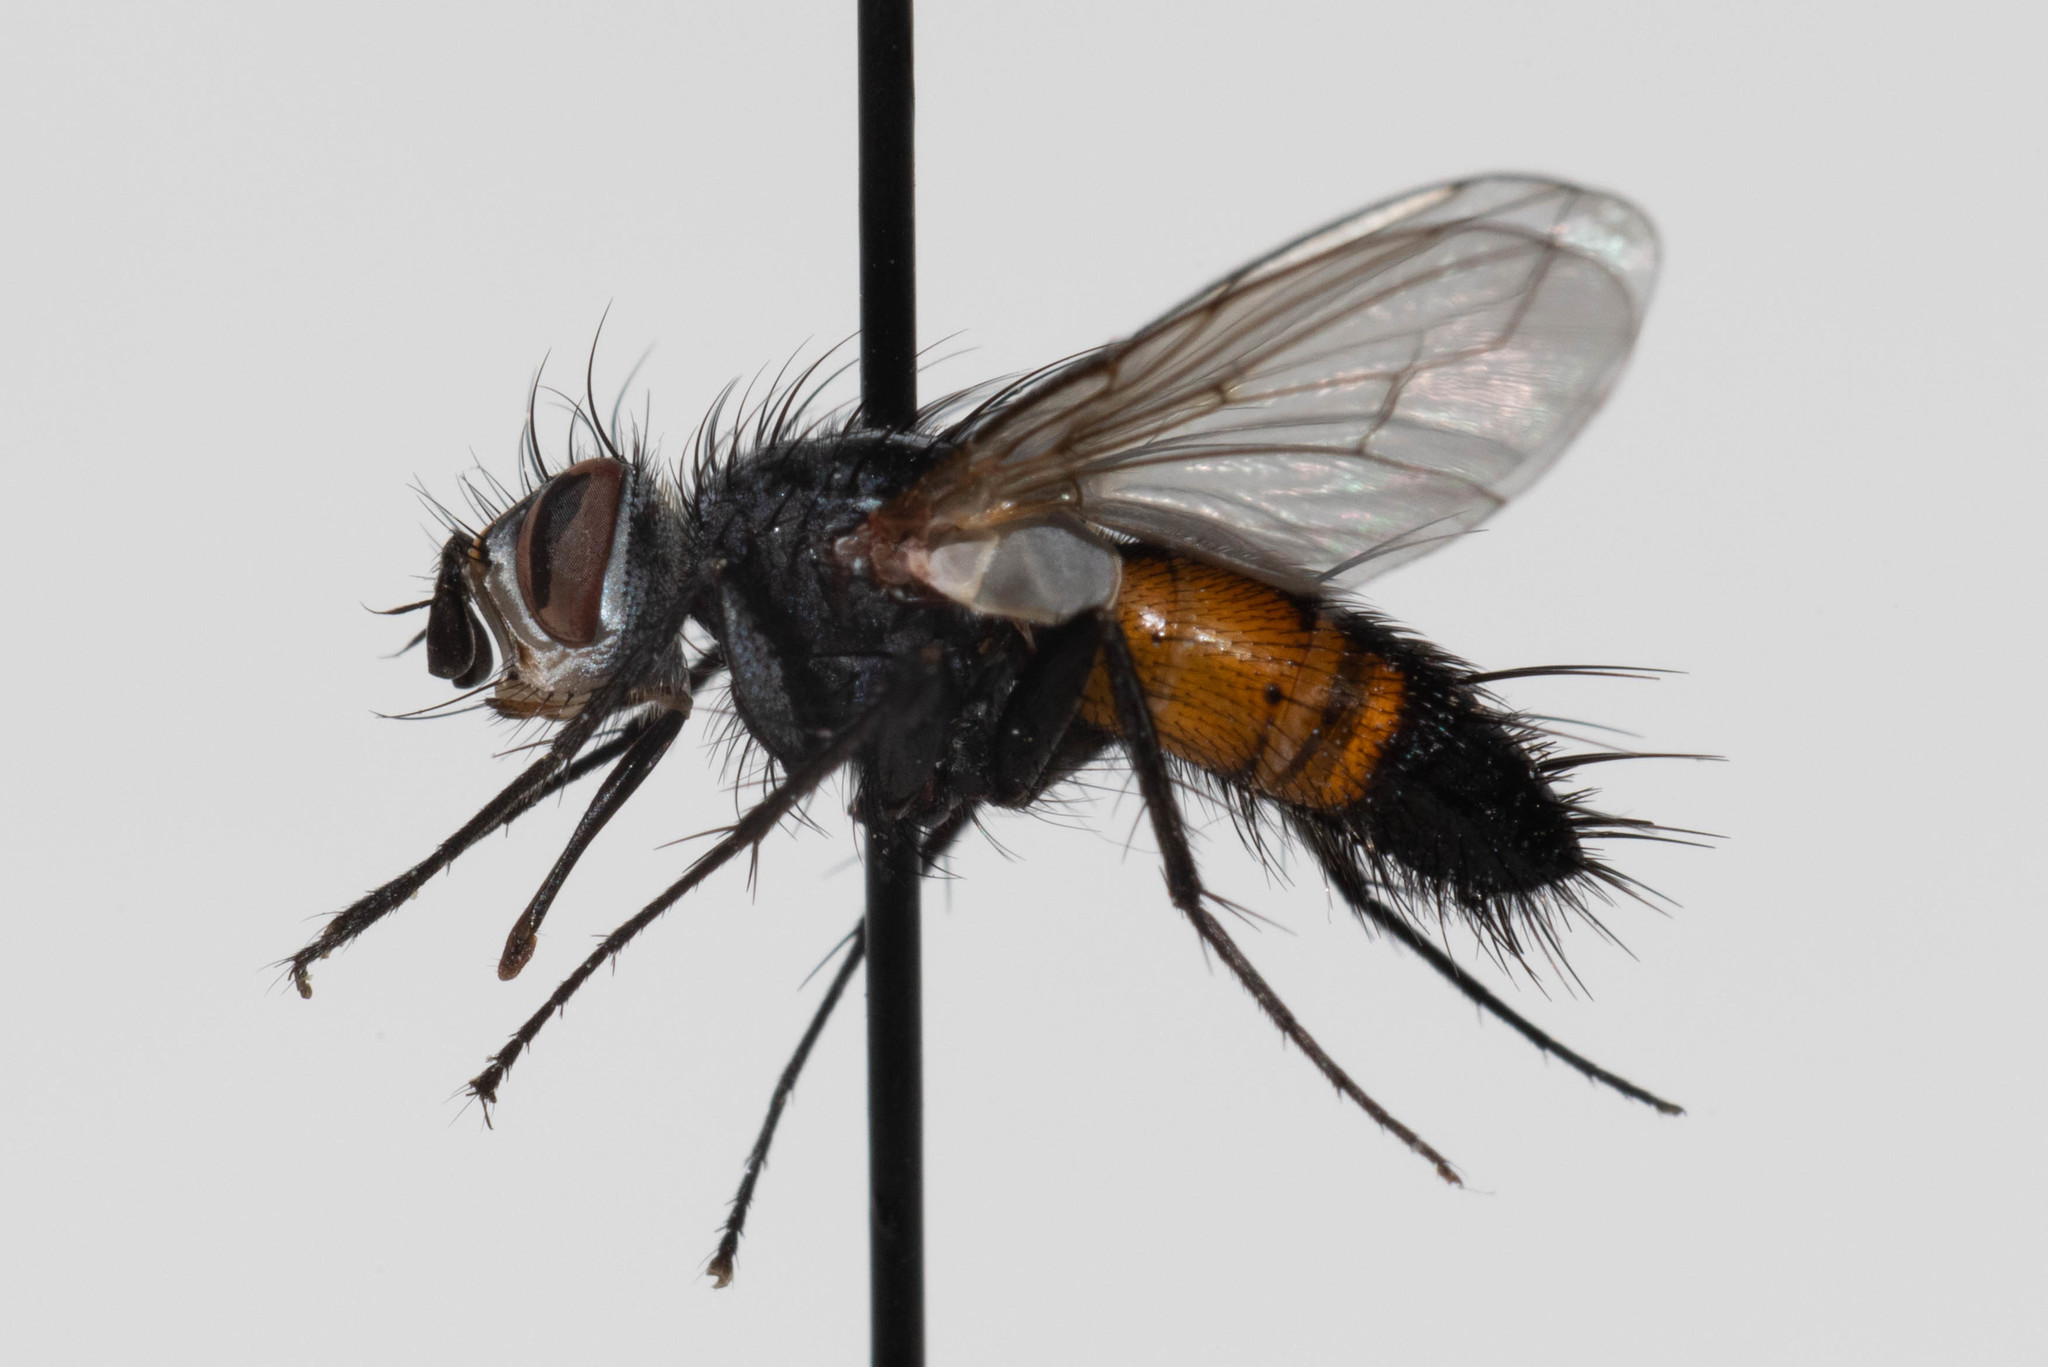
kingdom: Animalia
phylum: Arthropoda
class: Insecta
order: Diptera
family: Tachinidae
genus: Aphria
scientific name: Aphria ocypterata
